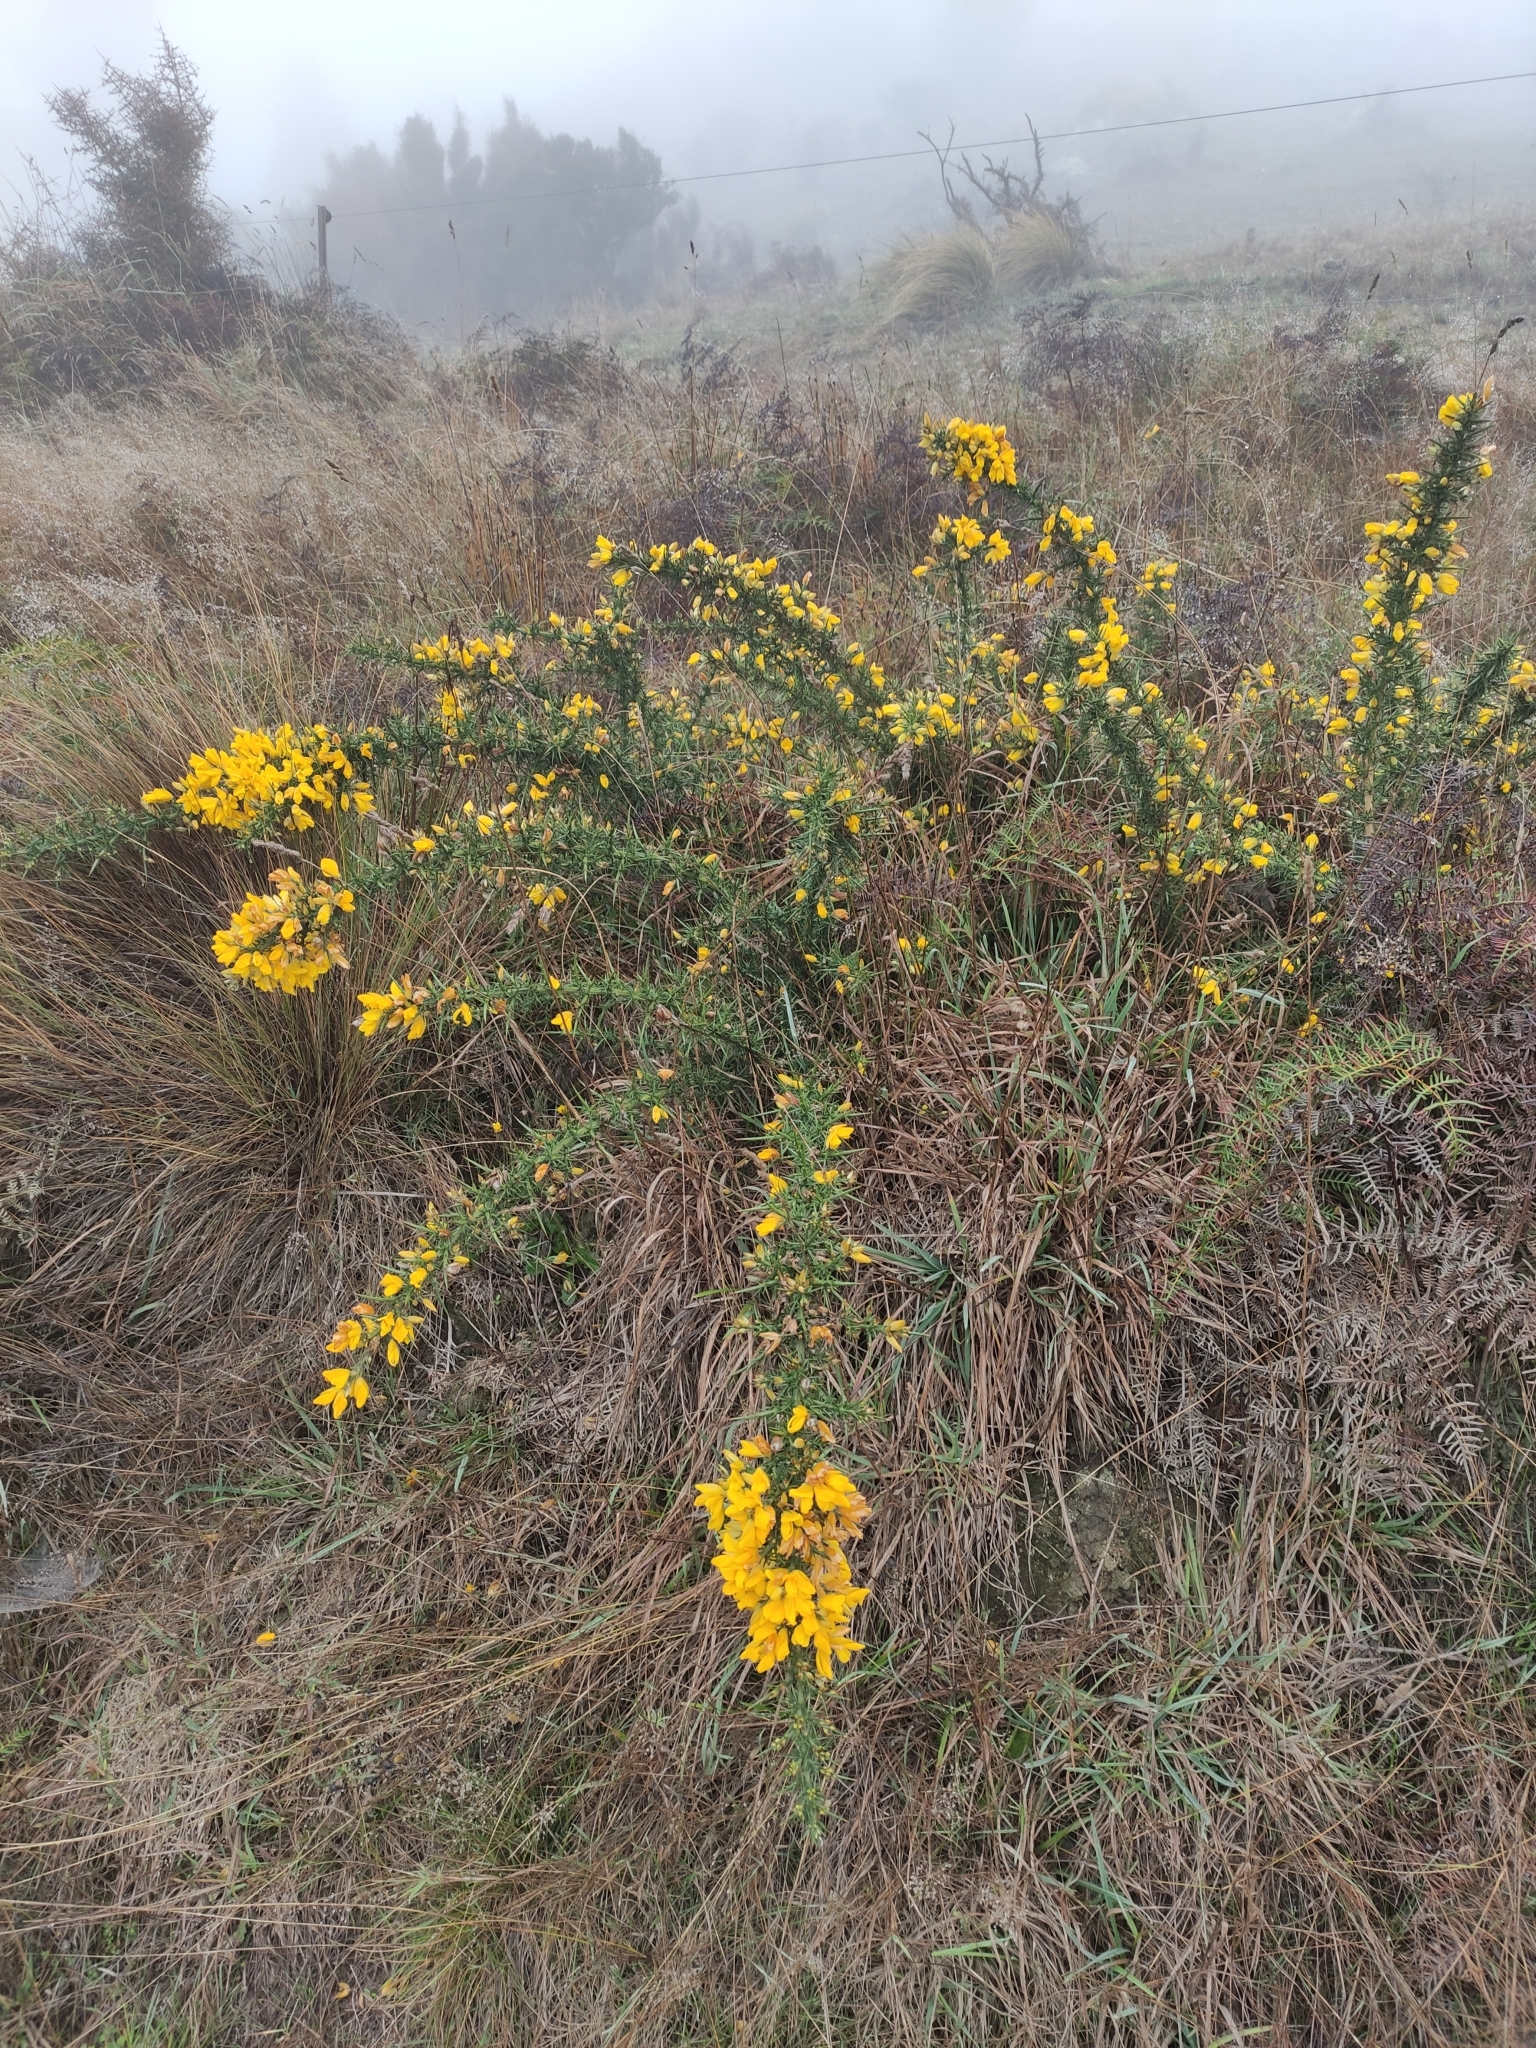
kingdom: Plantae
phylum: Tracheophyta
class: Magnoliopsida
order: Fabales
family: Fabaceae
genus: Ulex
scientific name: Ulex europaeus
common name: Common gorse
